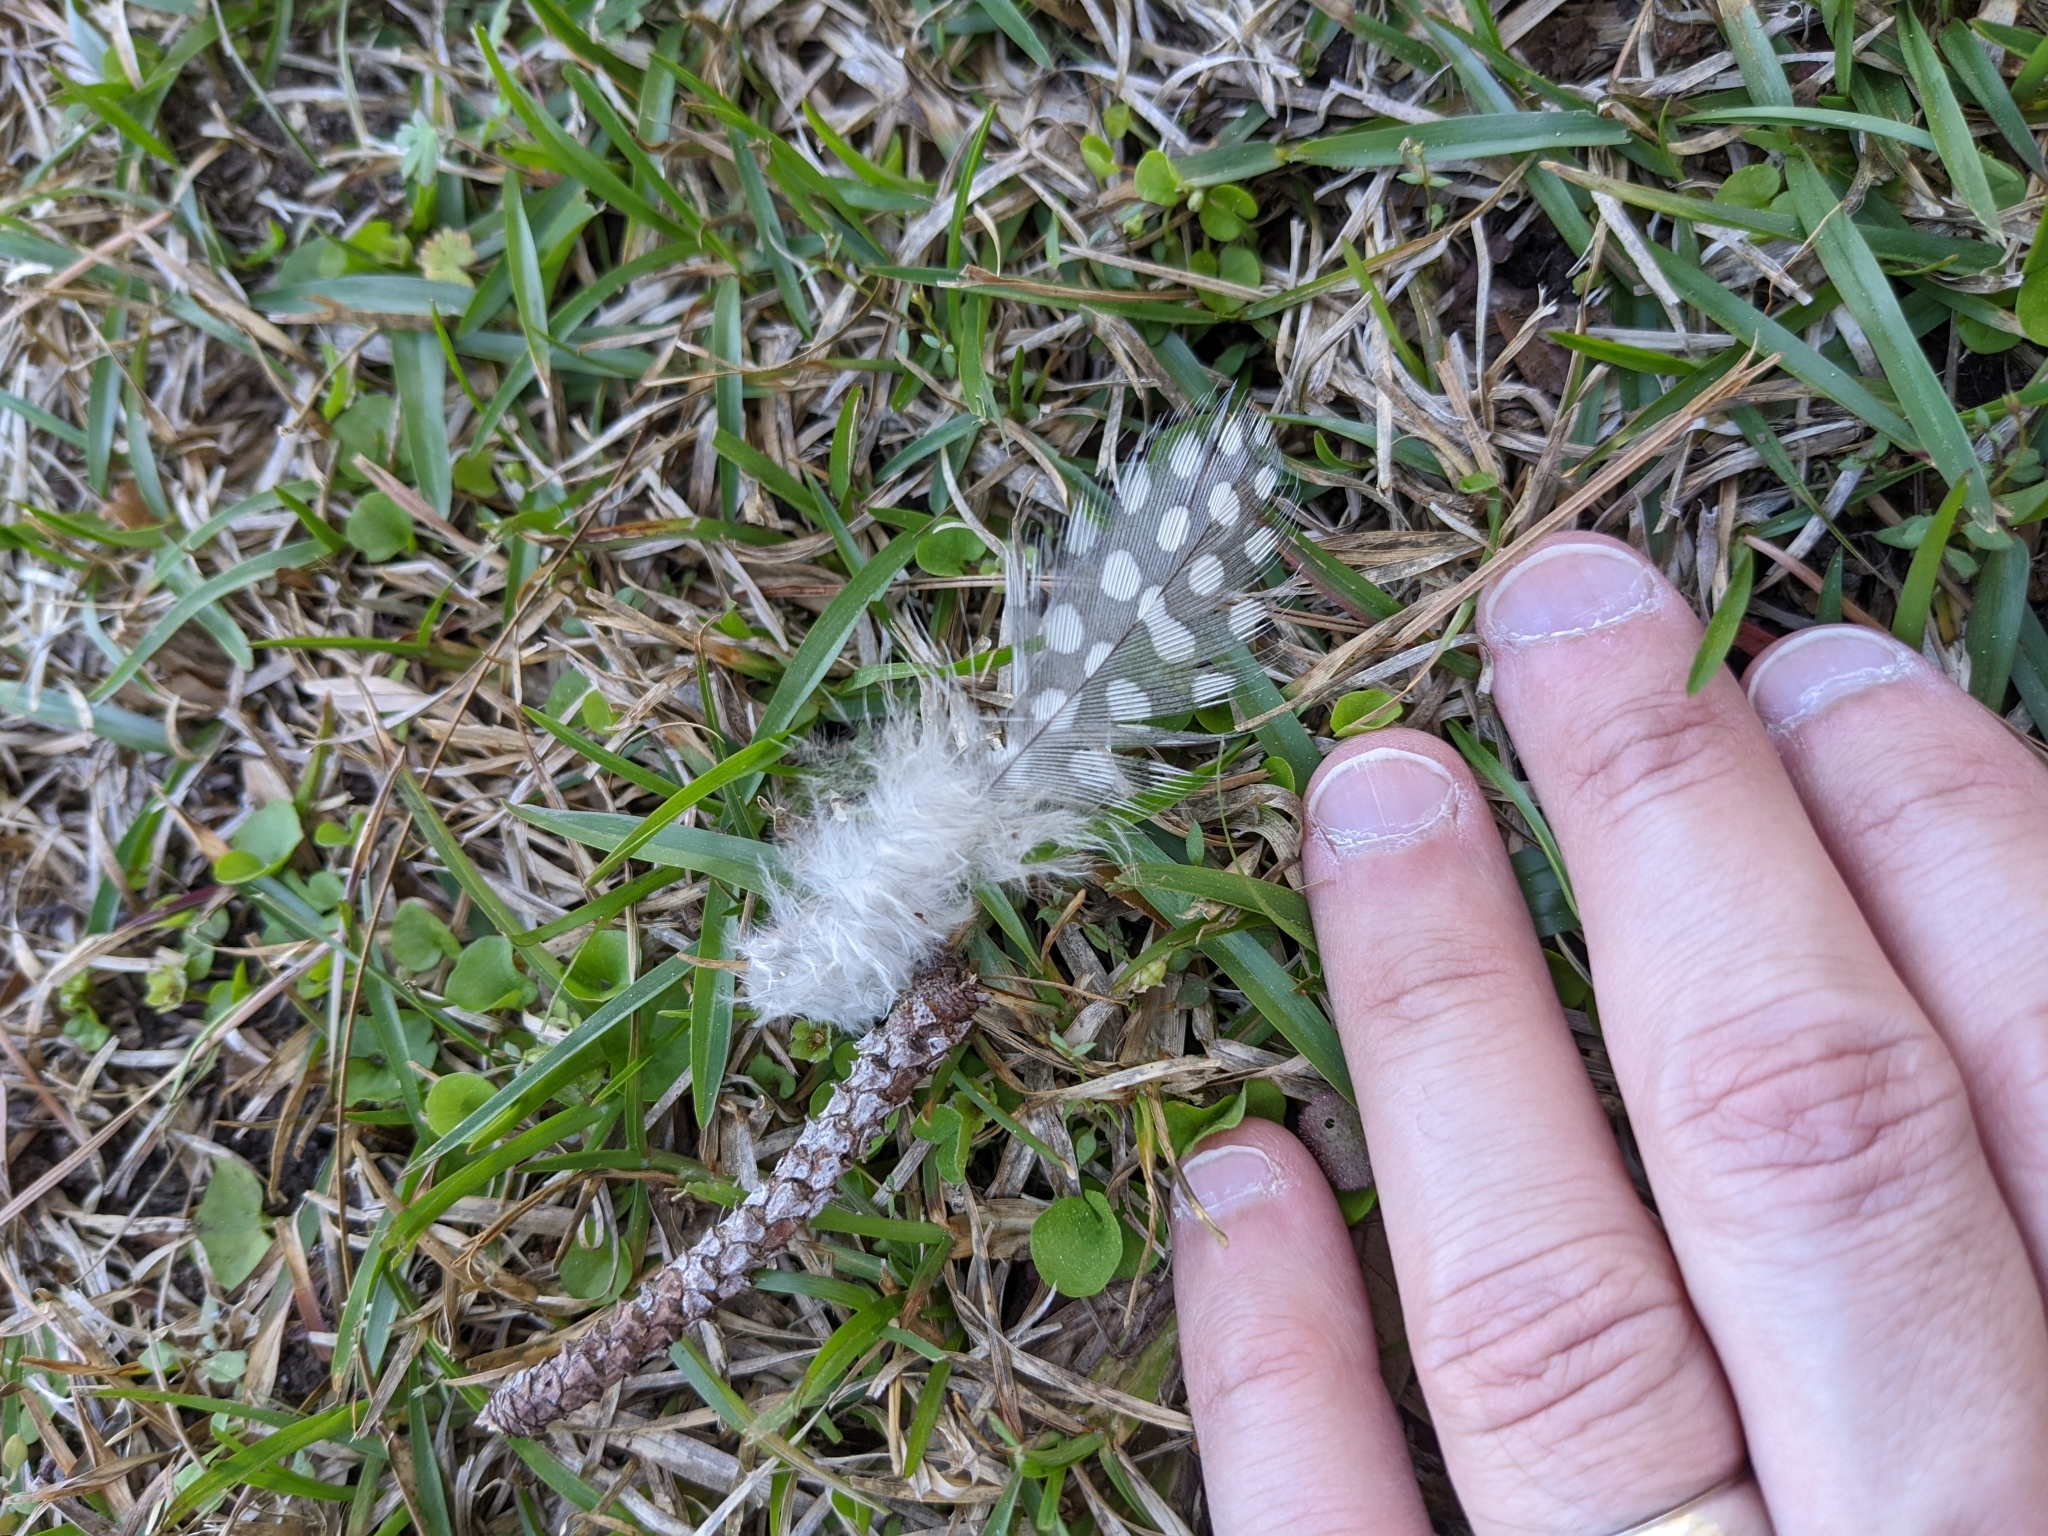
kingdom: Animalia
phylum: Chordata
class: Aves
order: Galliformes
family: Numididae
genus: Numida
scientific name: Numida meleagris
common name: Helmeted guineafowl
